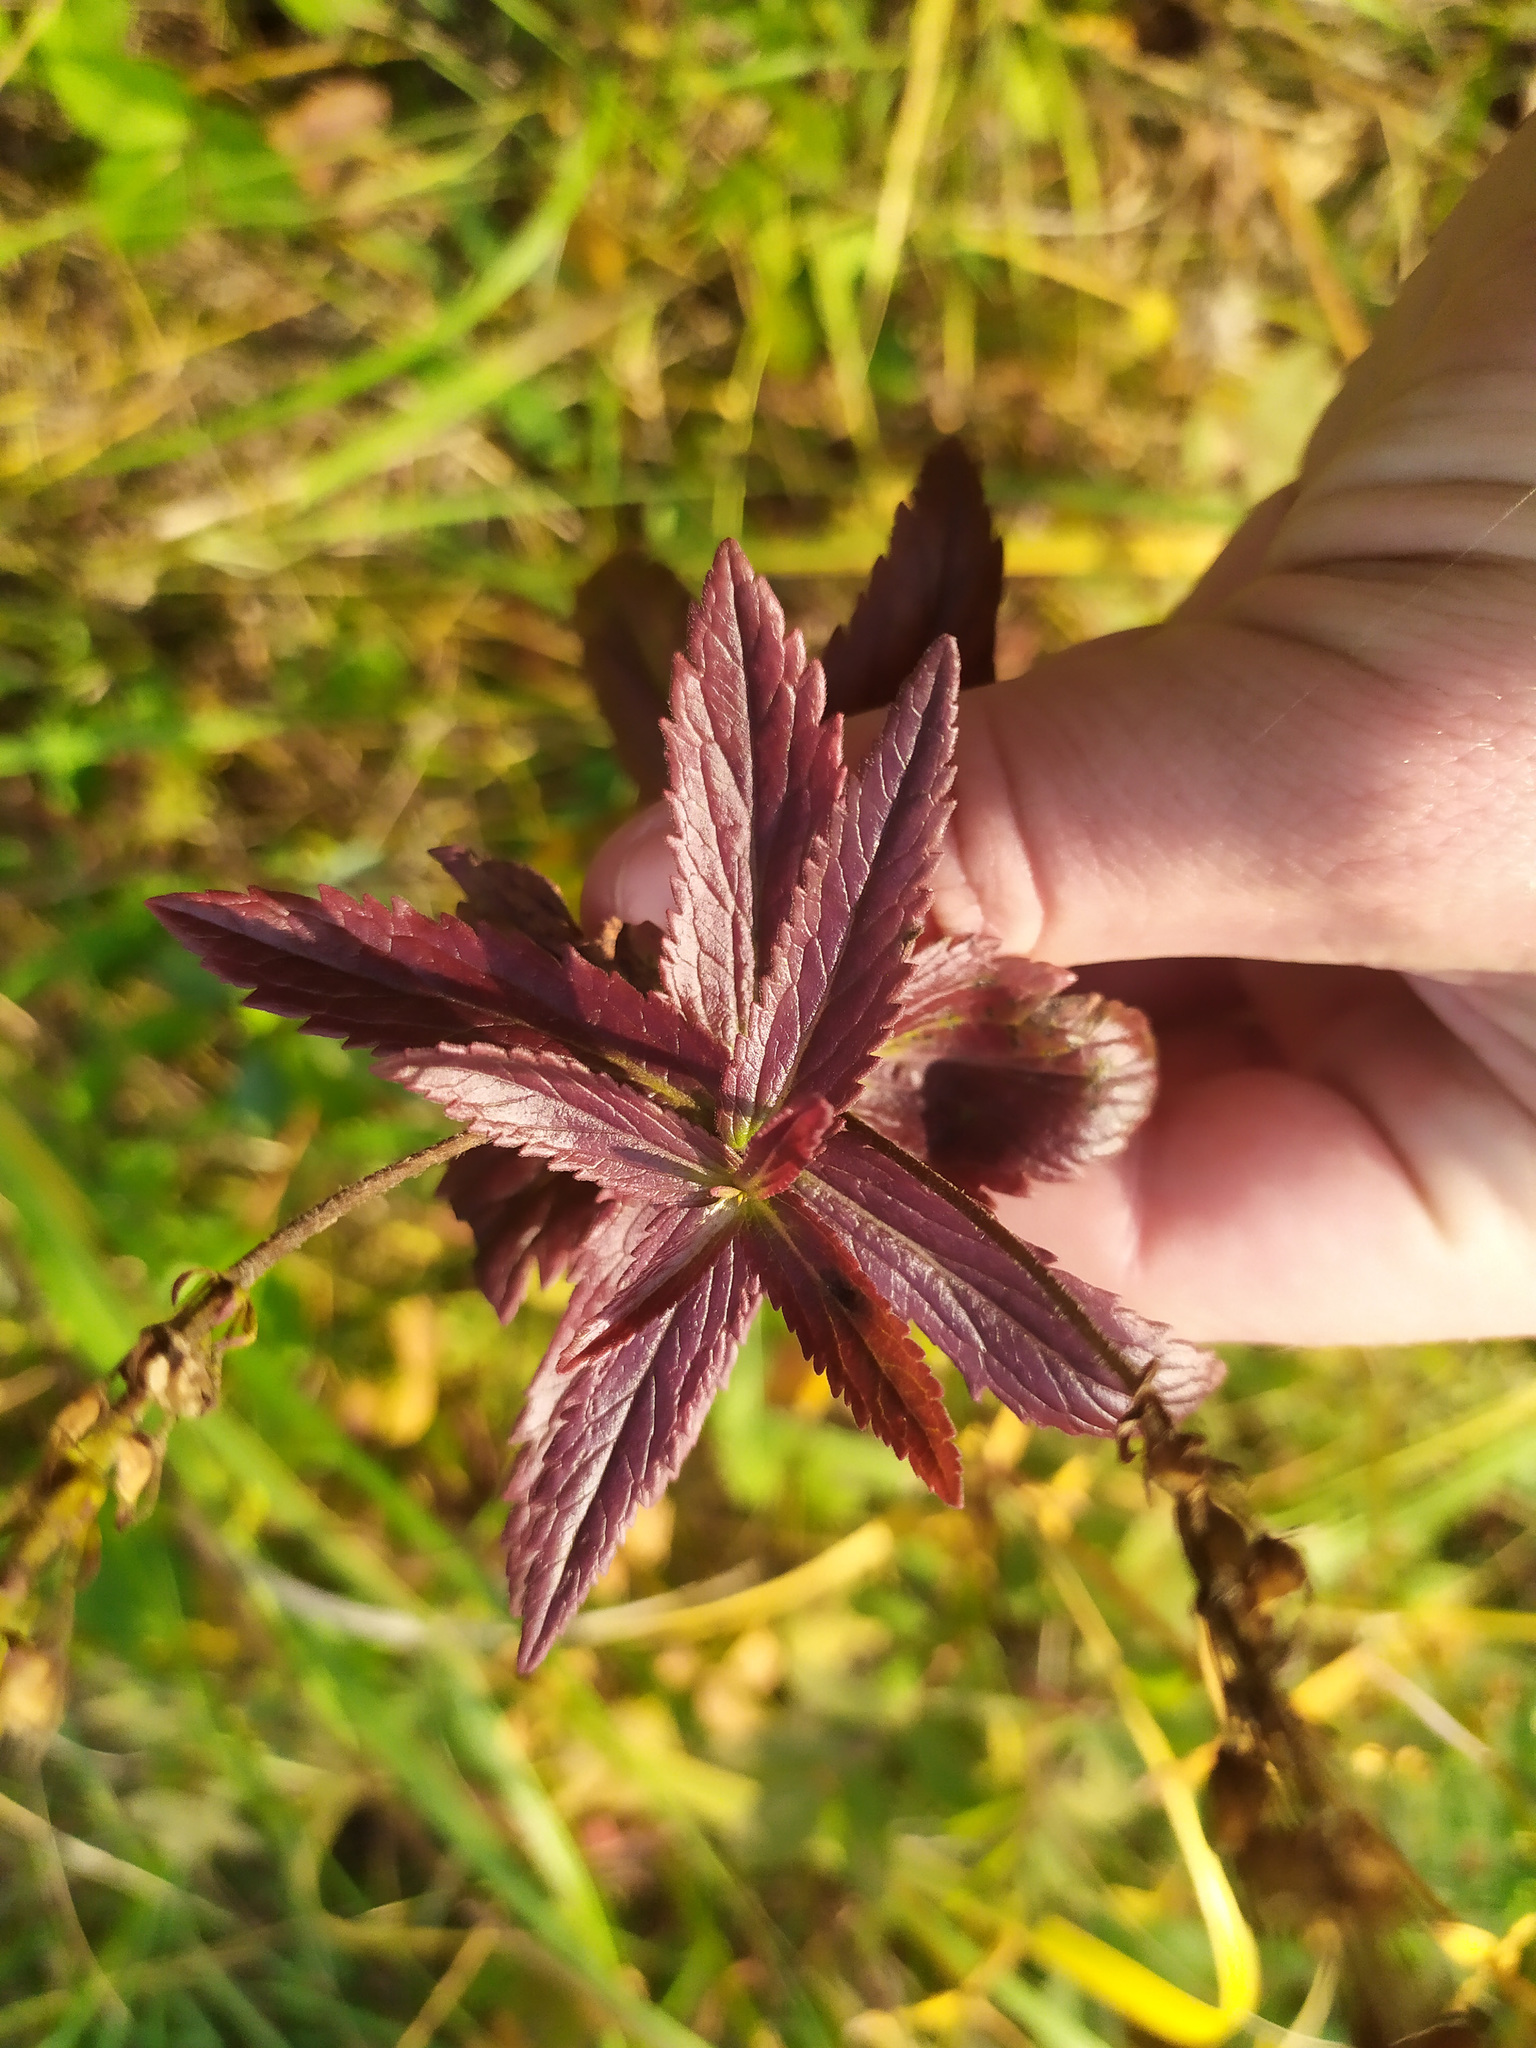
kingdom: Plantae
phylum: Tracheophyta
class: Magnoliopsida
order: Lamiales
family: Plantaginaceae
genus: Veronica
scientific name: Veronica teucrium
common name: Large speedwell
